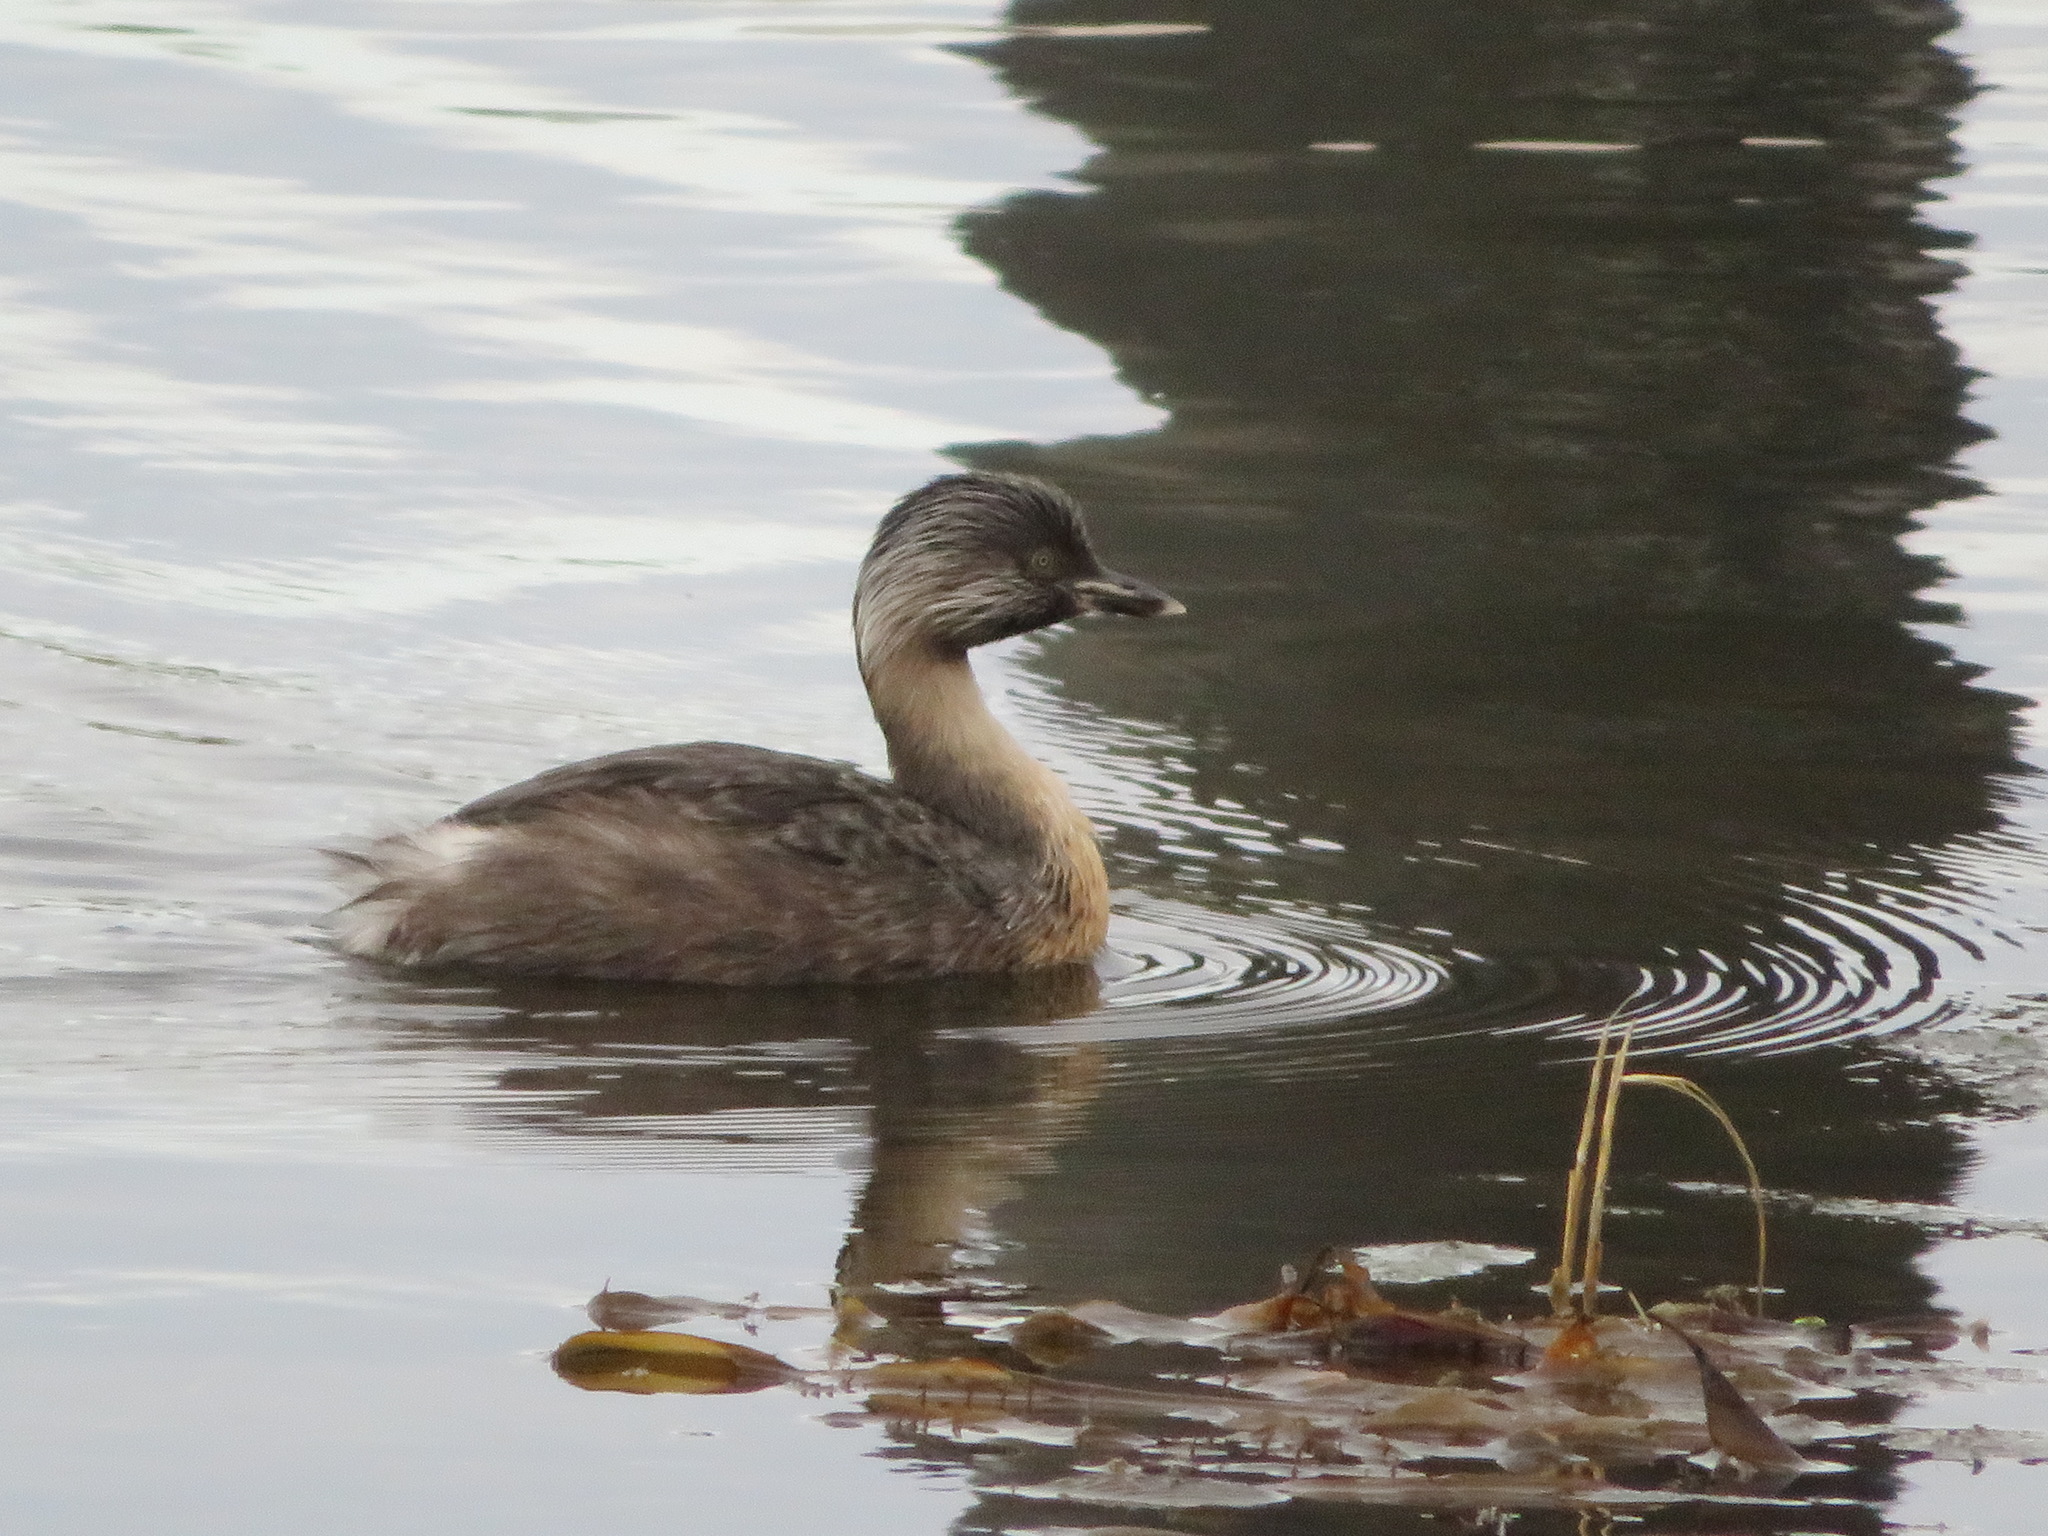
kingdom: Animalia
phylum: Chordata
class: Aves
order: Podicipediformes
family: Podicipedidae
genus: Poliocephalus
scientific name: Poliocephalus poliocephalus
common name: Hoary-headed grebe
